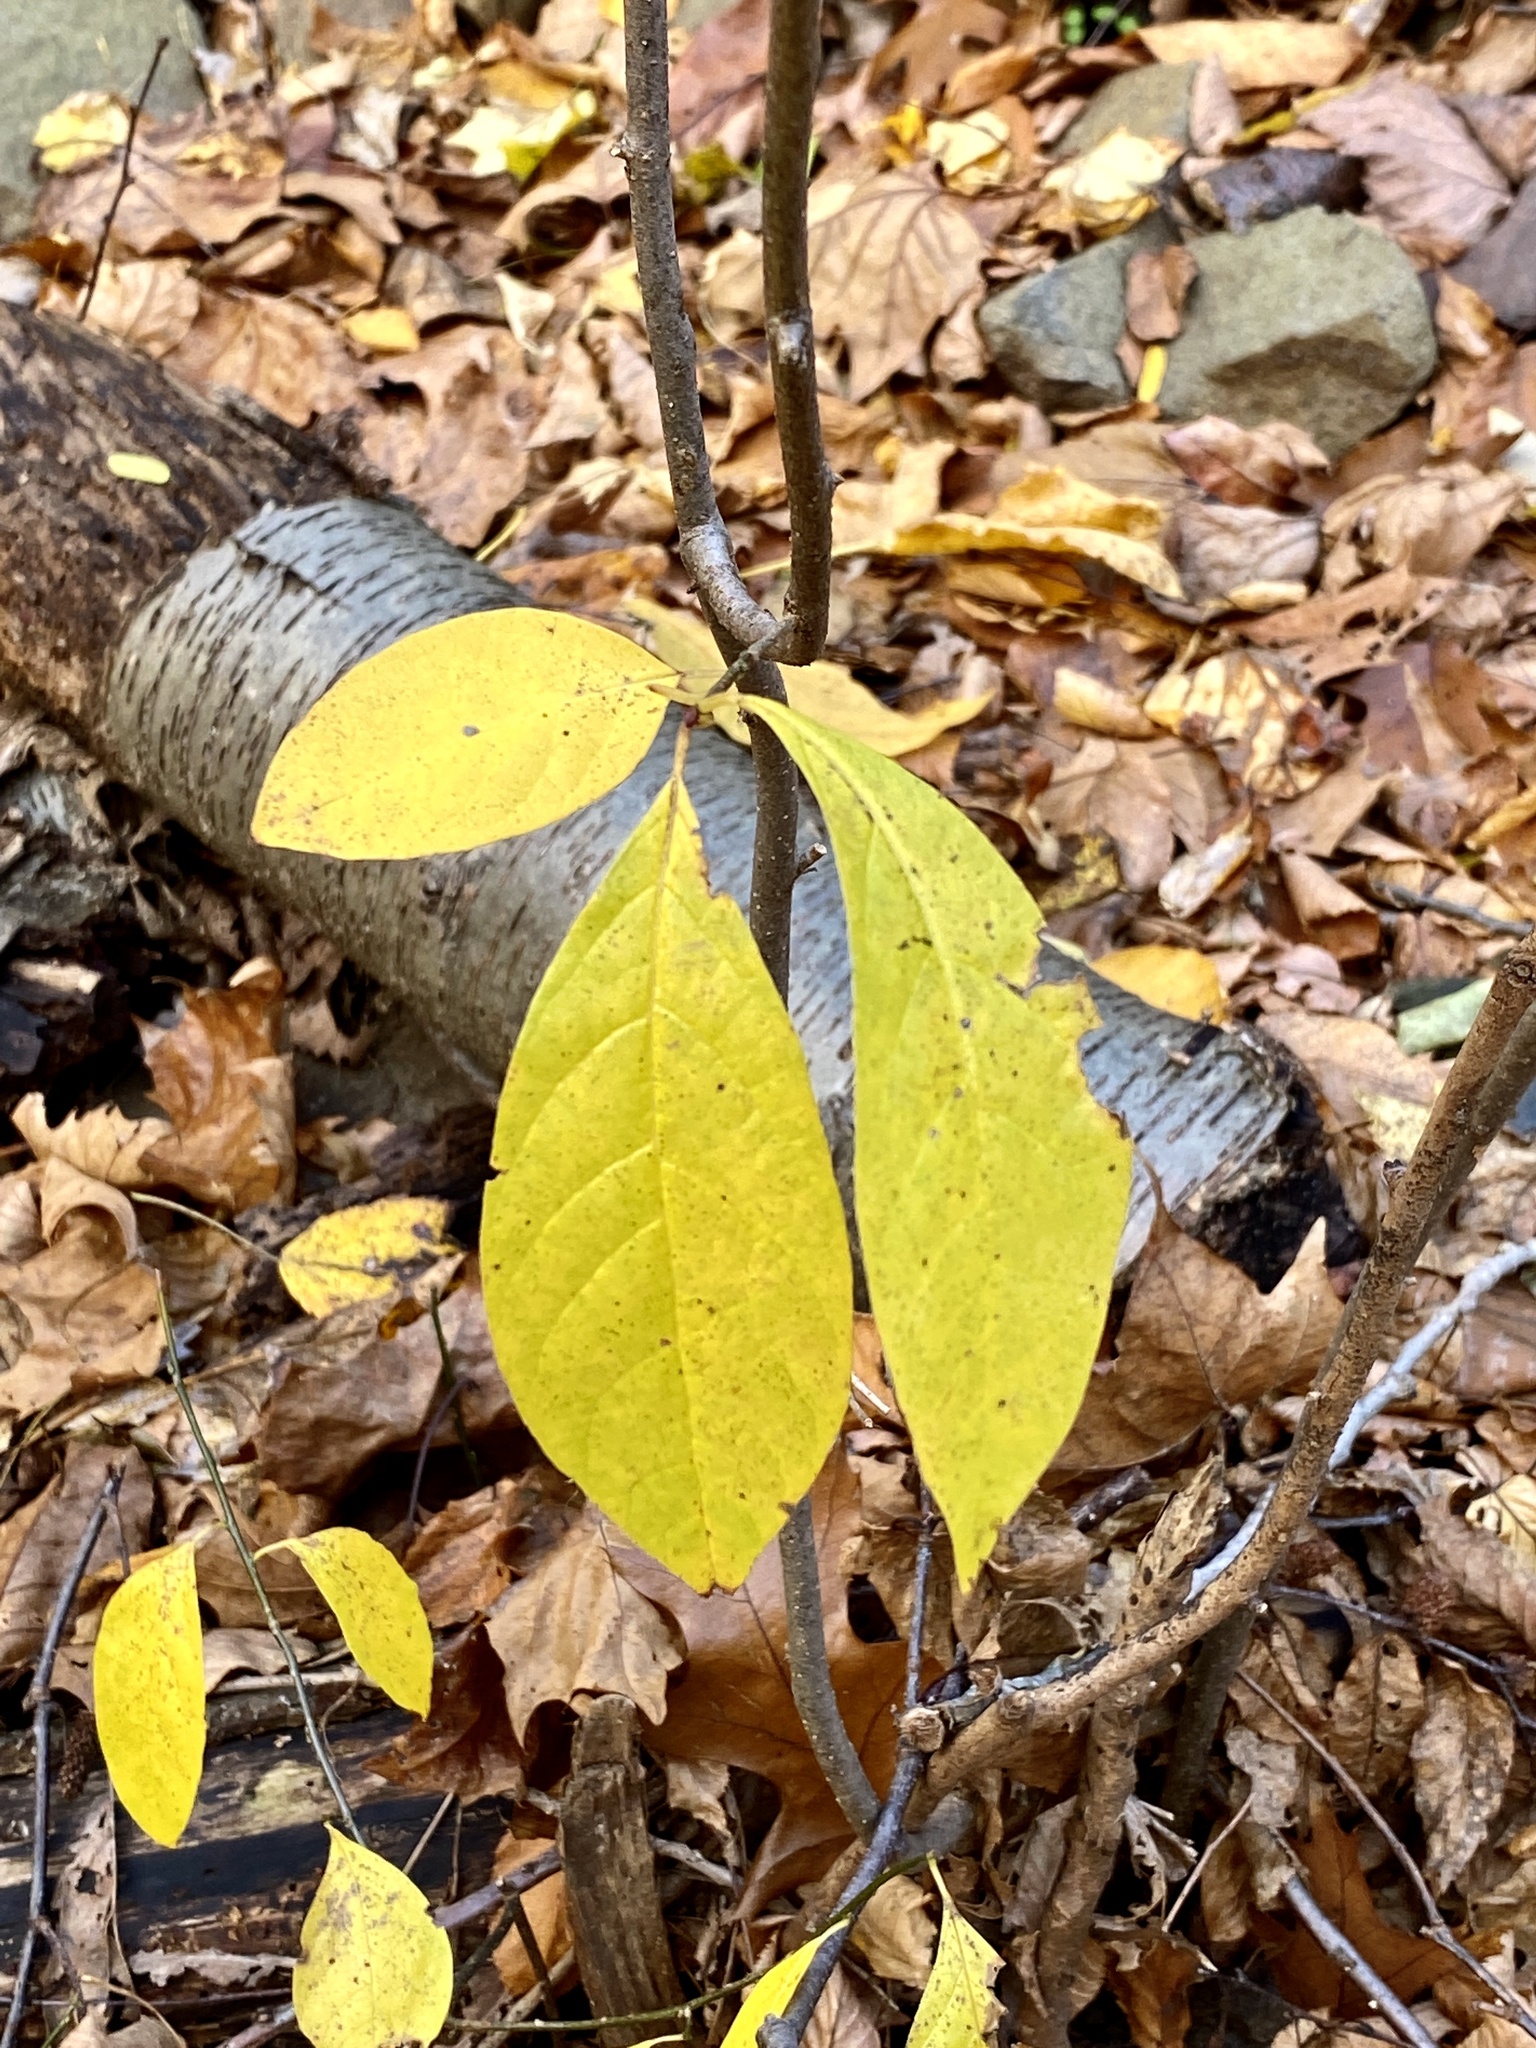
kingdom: Plantae
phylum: Tracheophyta
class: Magnoliopsida
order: Laurales
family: Lauraceae
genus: Lindera
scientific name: Lindera benzoin
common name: Spicebush
